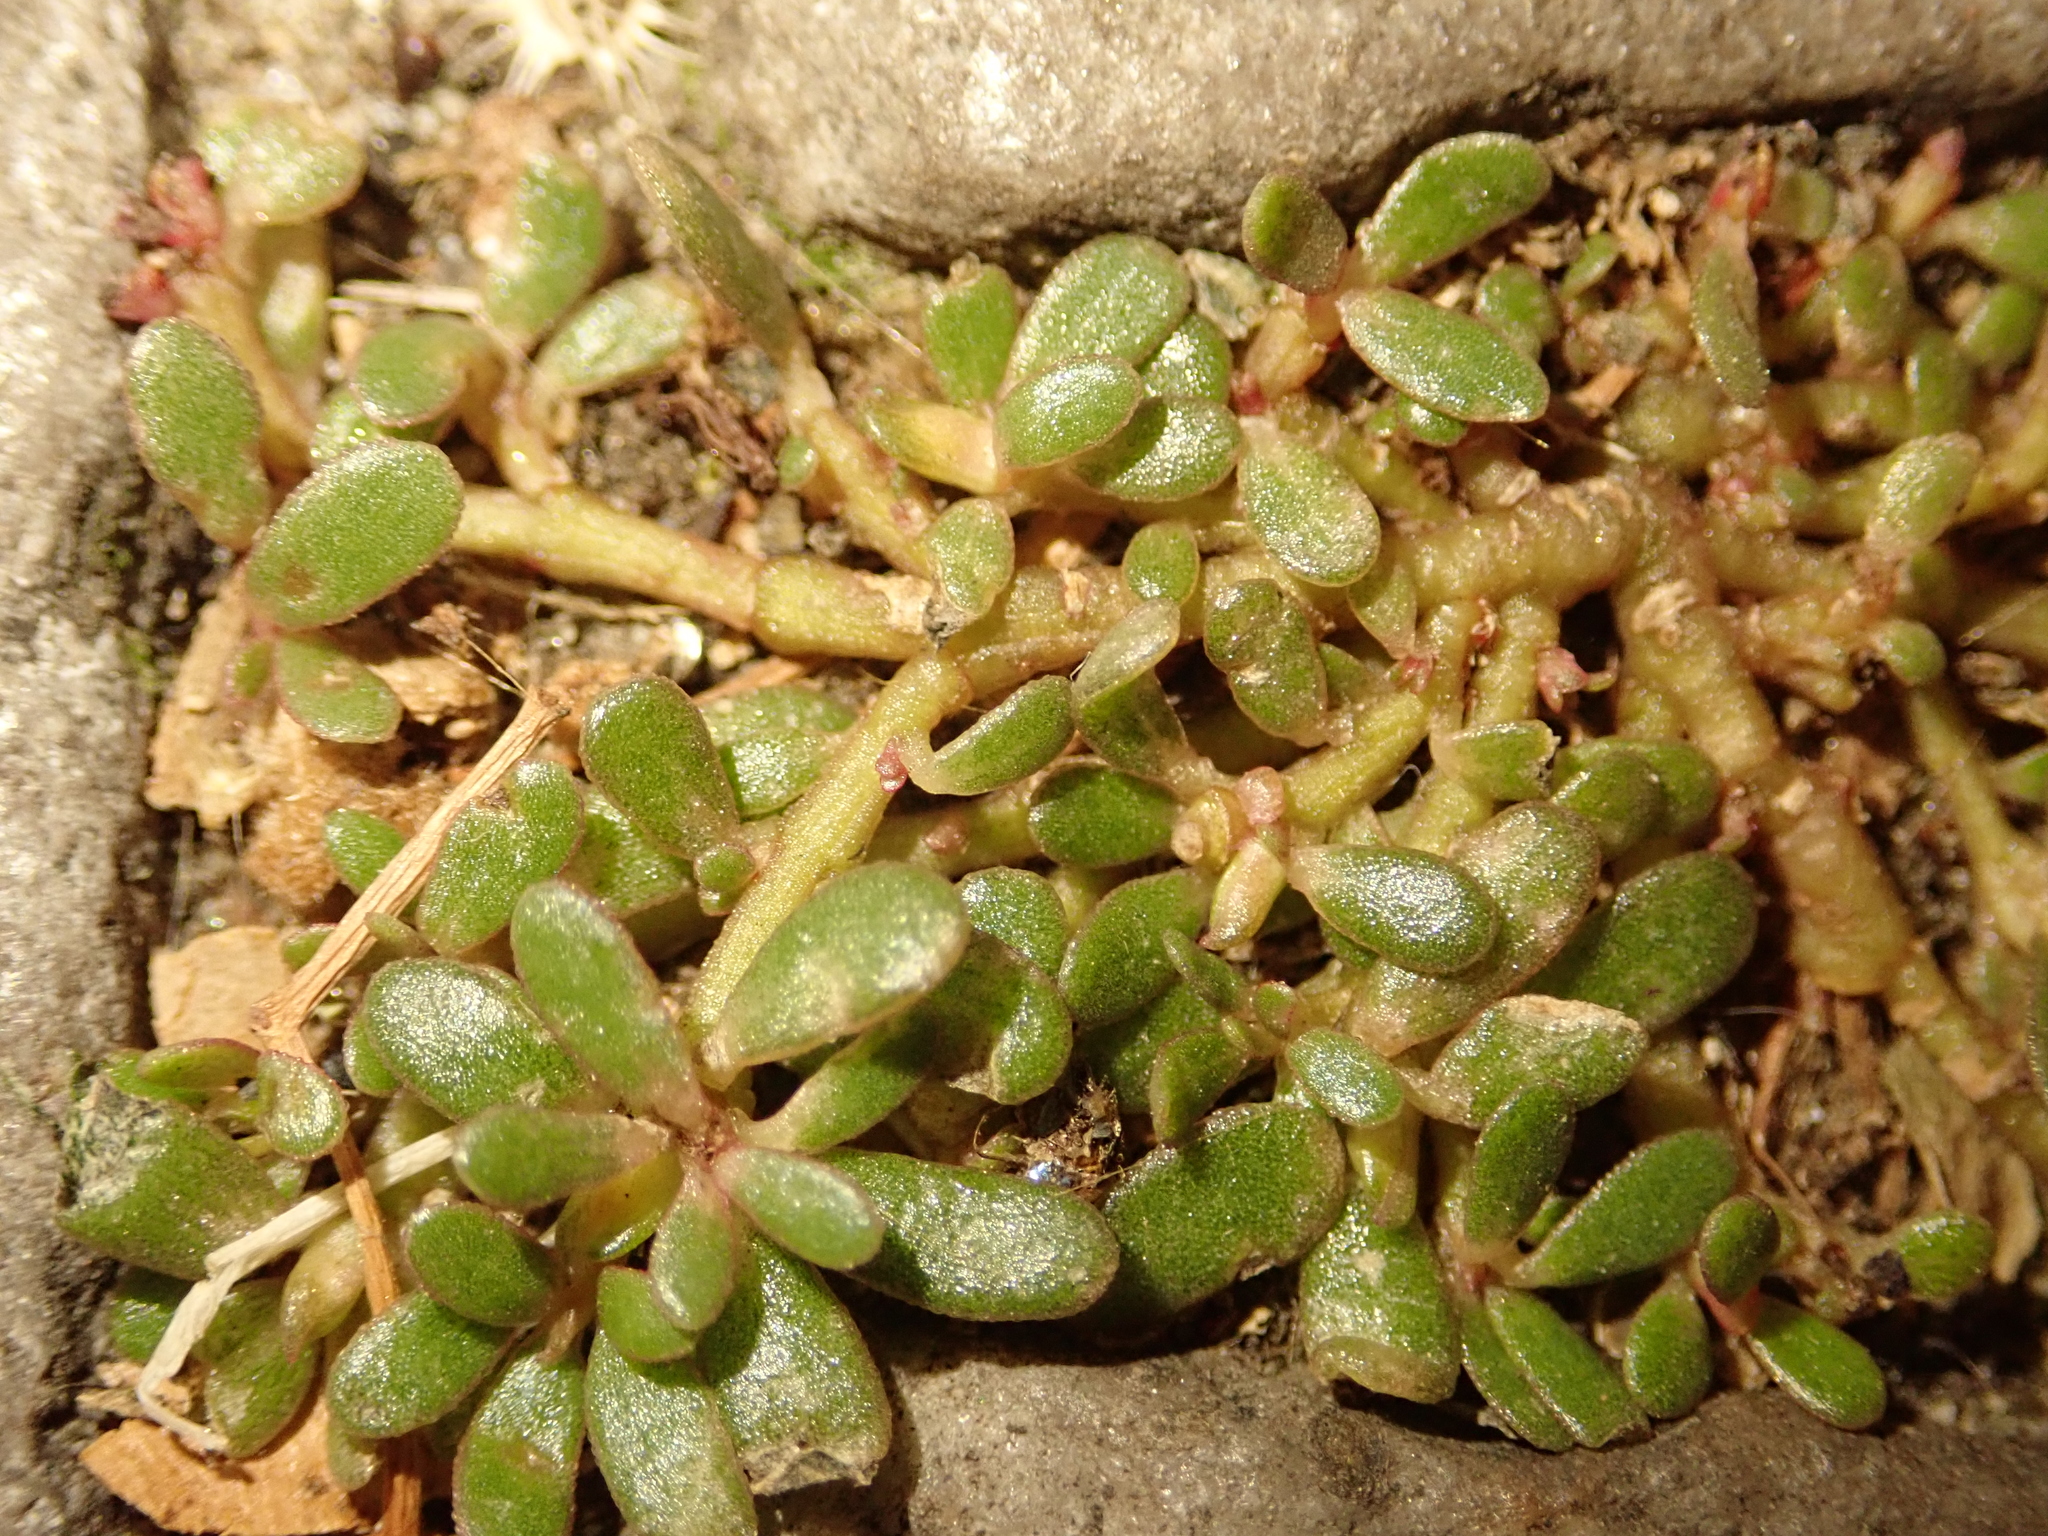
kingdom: Plantae
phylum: Tracheophyta
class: Magnoliopsida
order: Caryophyllales
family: Portulacaceae
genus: Portulaca
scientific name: Portulaca oleracea
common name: Common purslane
